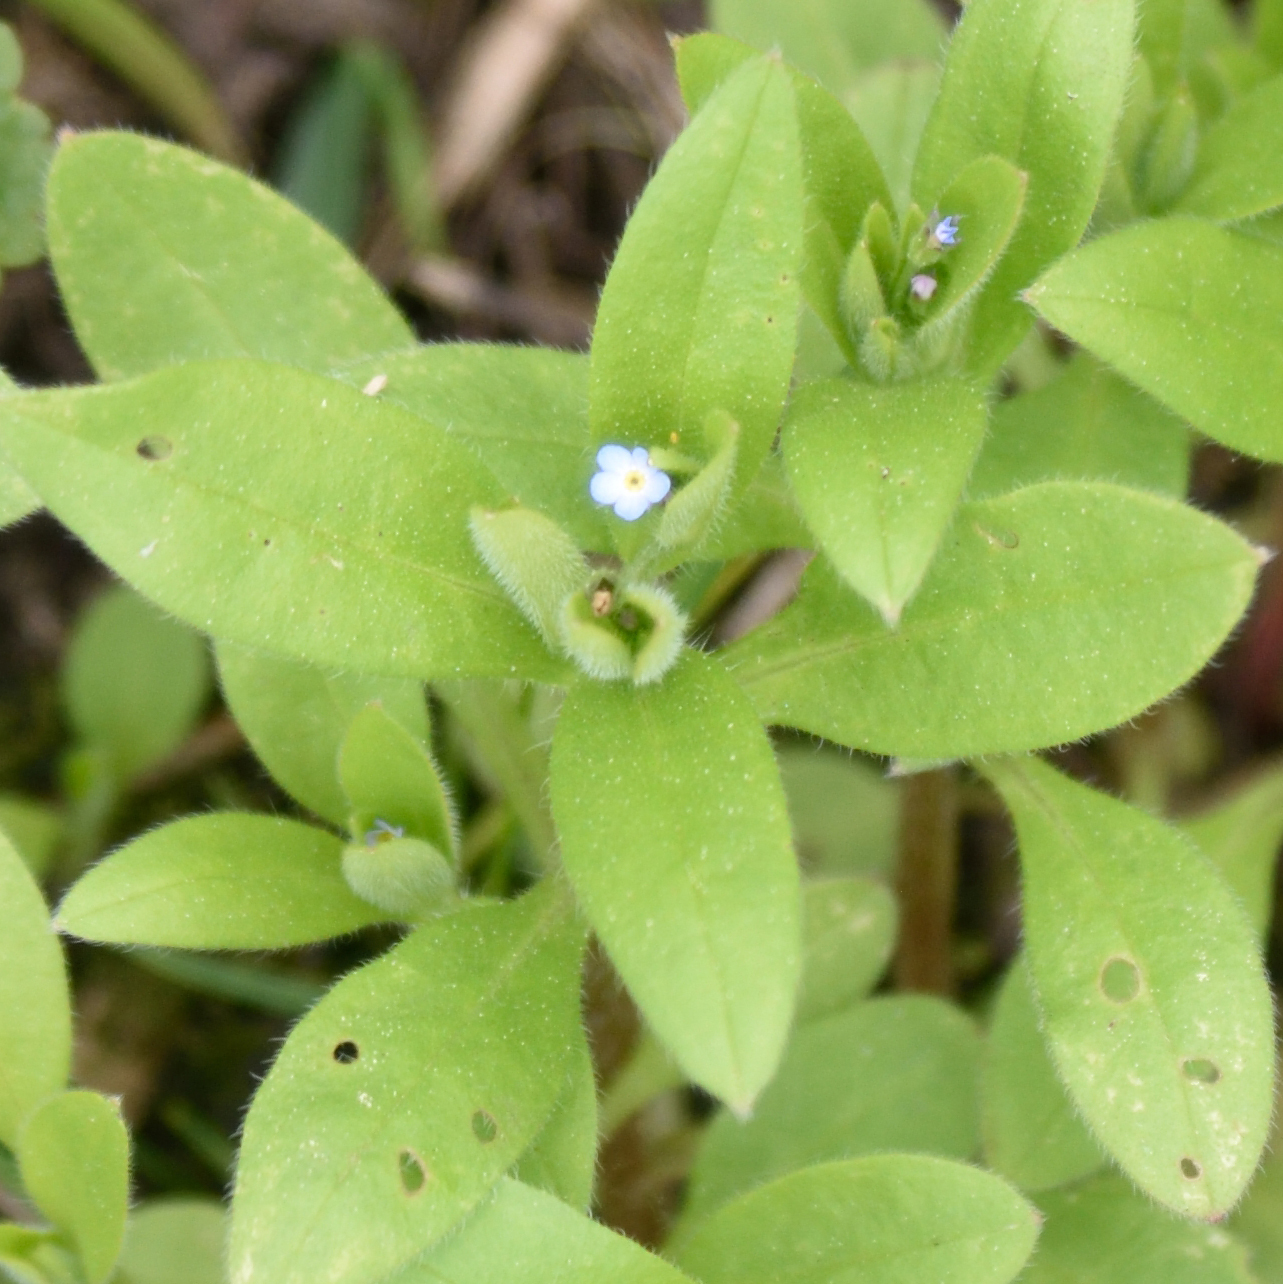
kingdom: Plantae
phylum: Tracheophyta
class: Magnoliopsida
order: Boraginales
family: Boraginaceae
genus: Myosotis
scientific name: Myosotis sparsiflora
